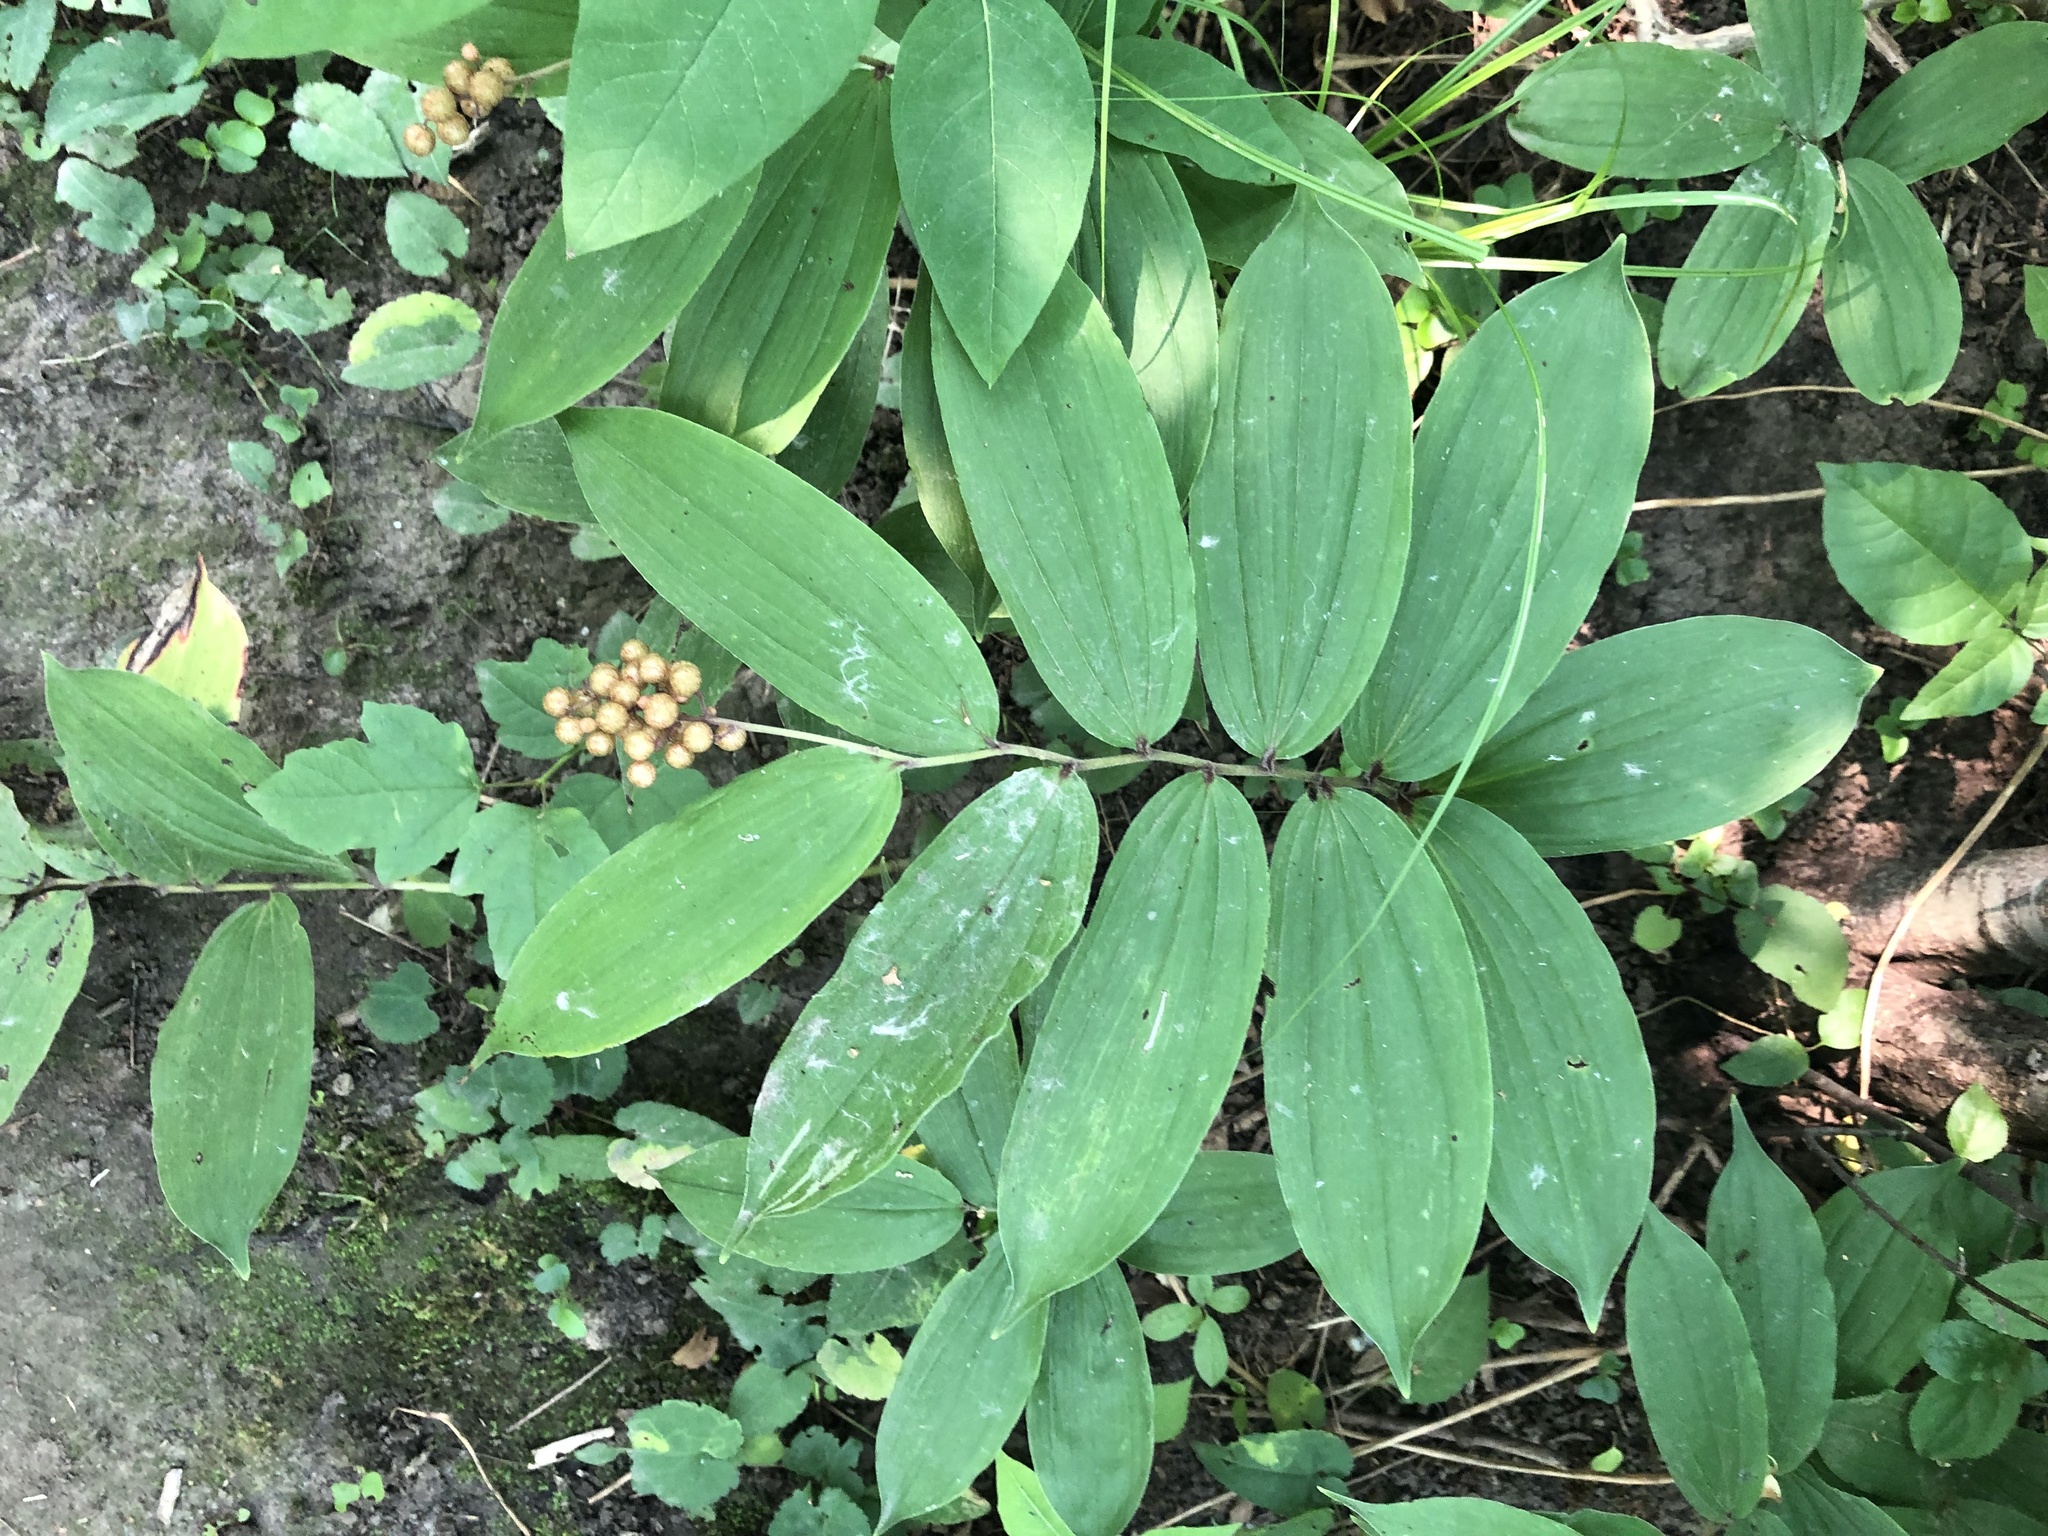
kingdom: Plantae
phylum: Tracheophyta
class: Liliopsida
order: Asparagales
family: Asparagaceae
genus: Maianthemum
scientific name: Maianthemum racemosum
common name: False spikenard
